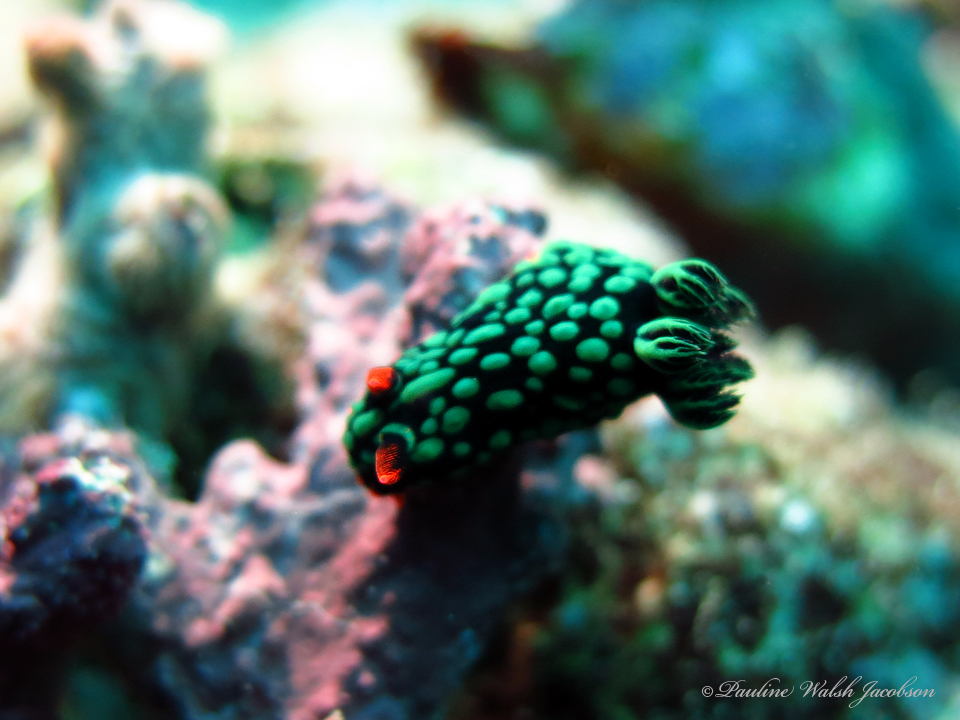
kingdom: Animalia
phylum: Mollusca
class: Gastropoda
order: Nudibranchia
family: Polyceridae
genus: Nembrotha
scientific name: Nembrotha kubaryana
